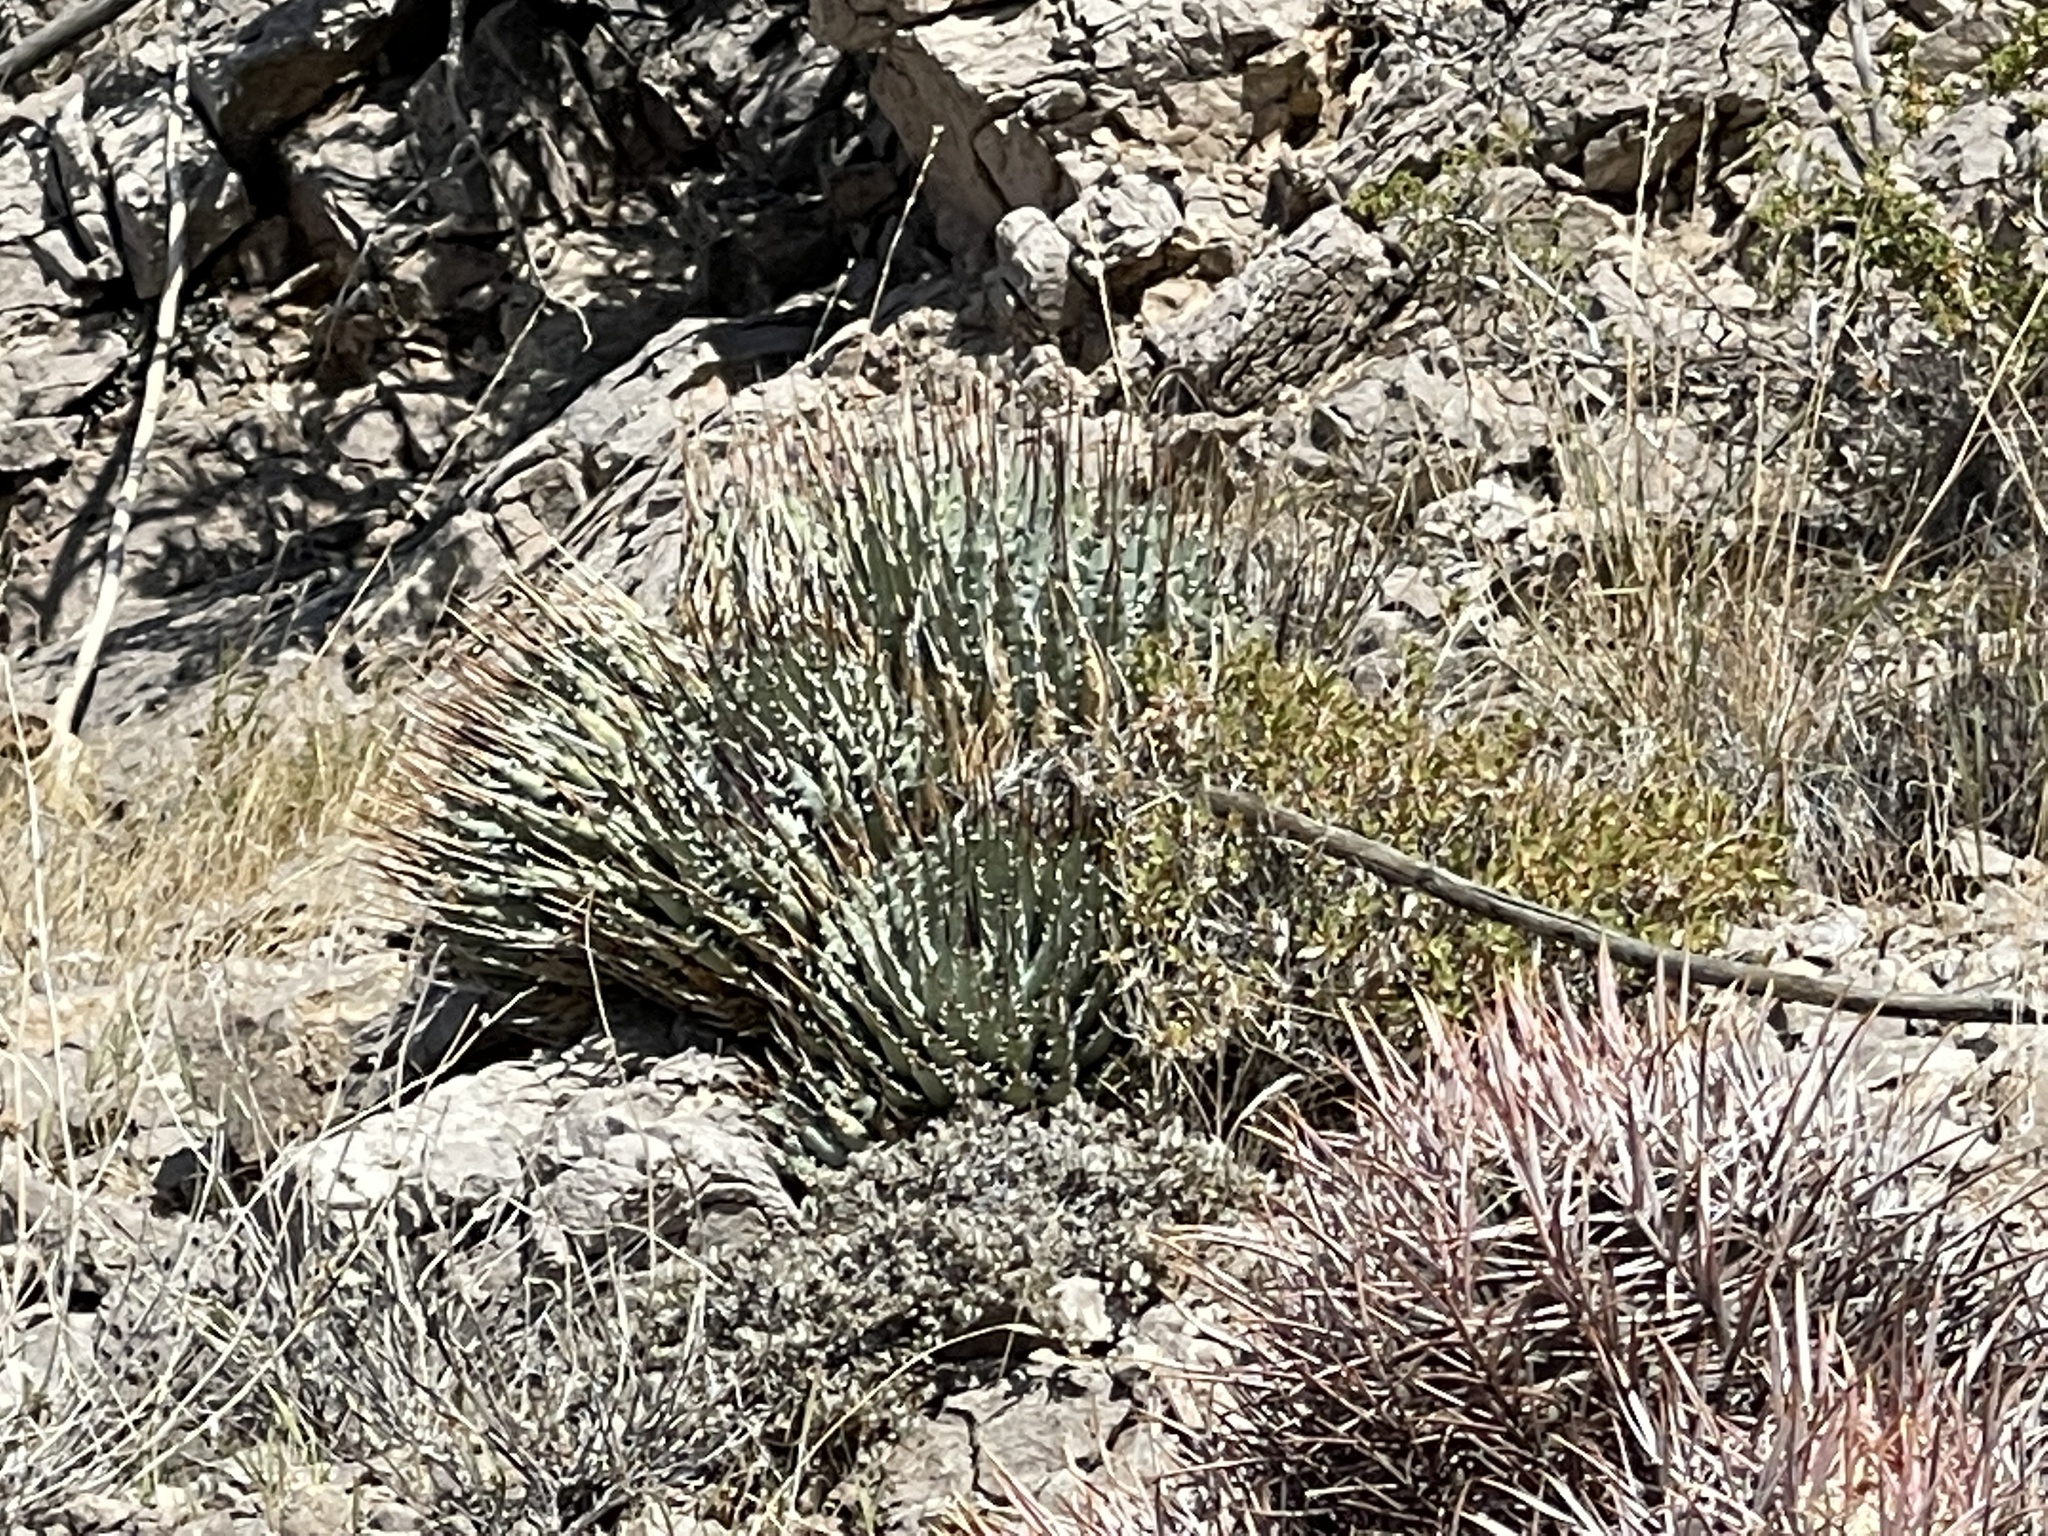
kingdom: Plantae
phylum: Tracheophyta
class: Liliopsida
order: Asparagales
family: Asparagaceae
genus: Agave
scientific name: Agave utahensis
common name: Utah agave
